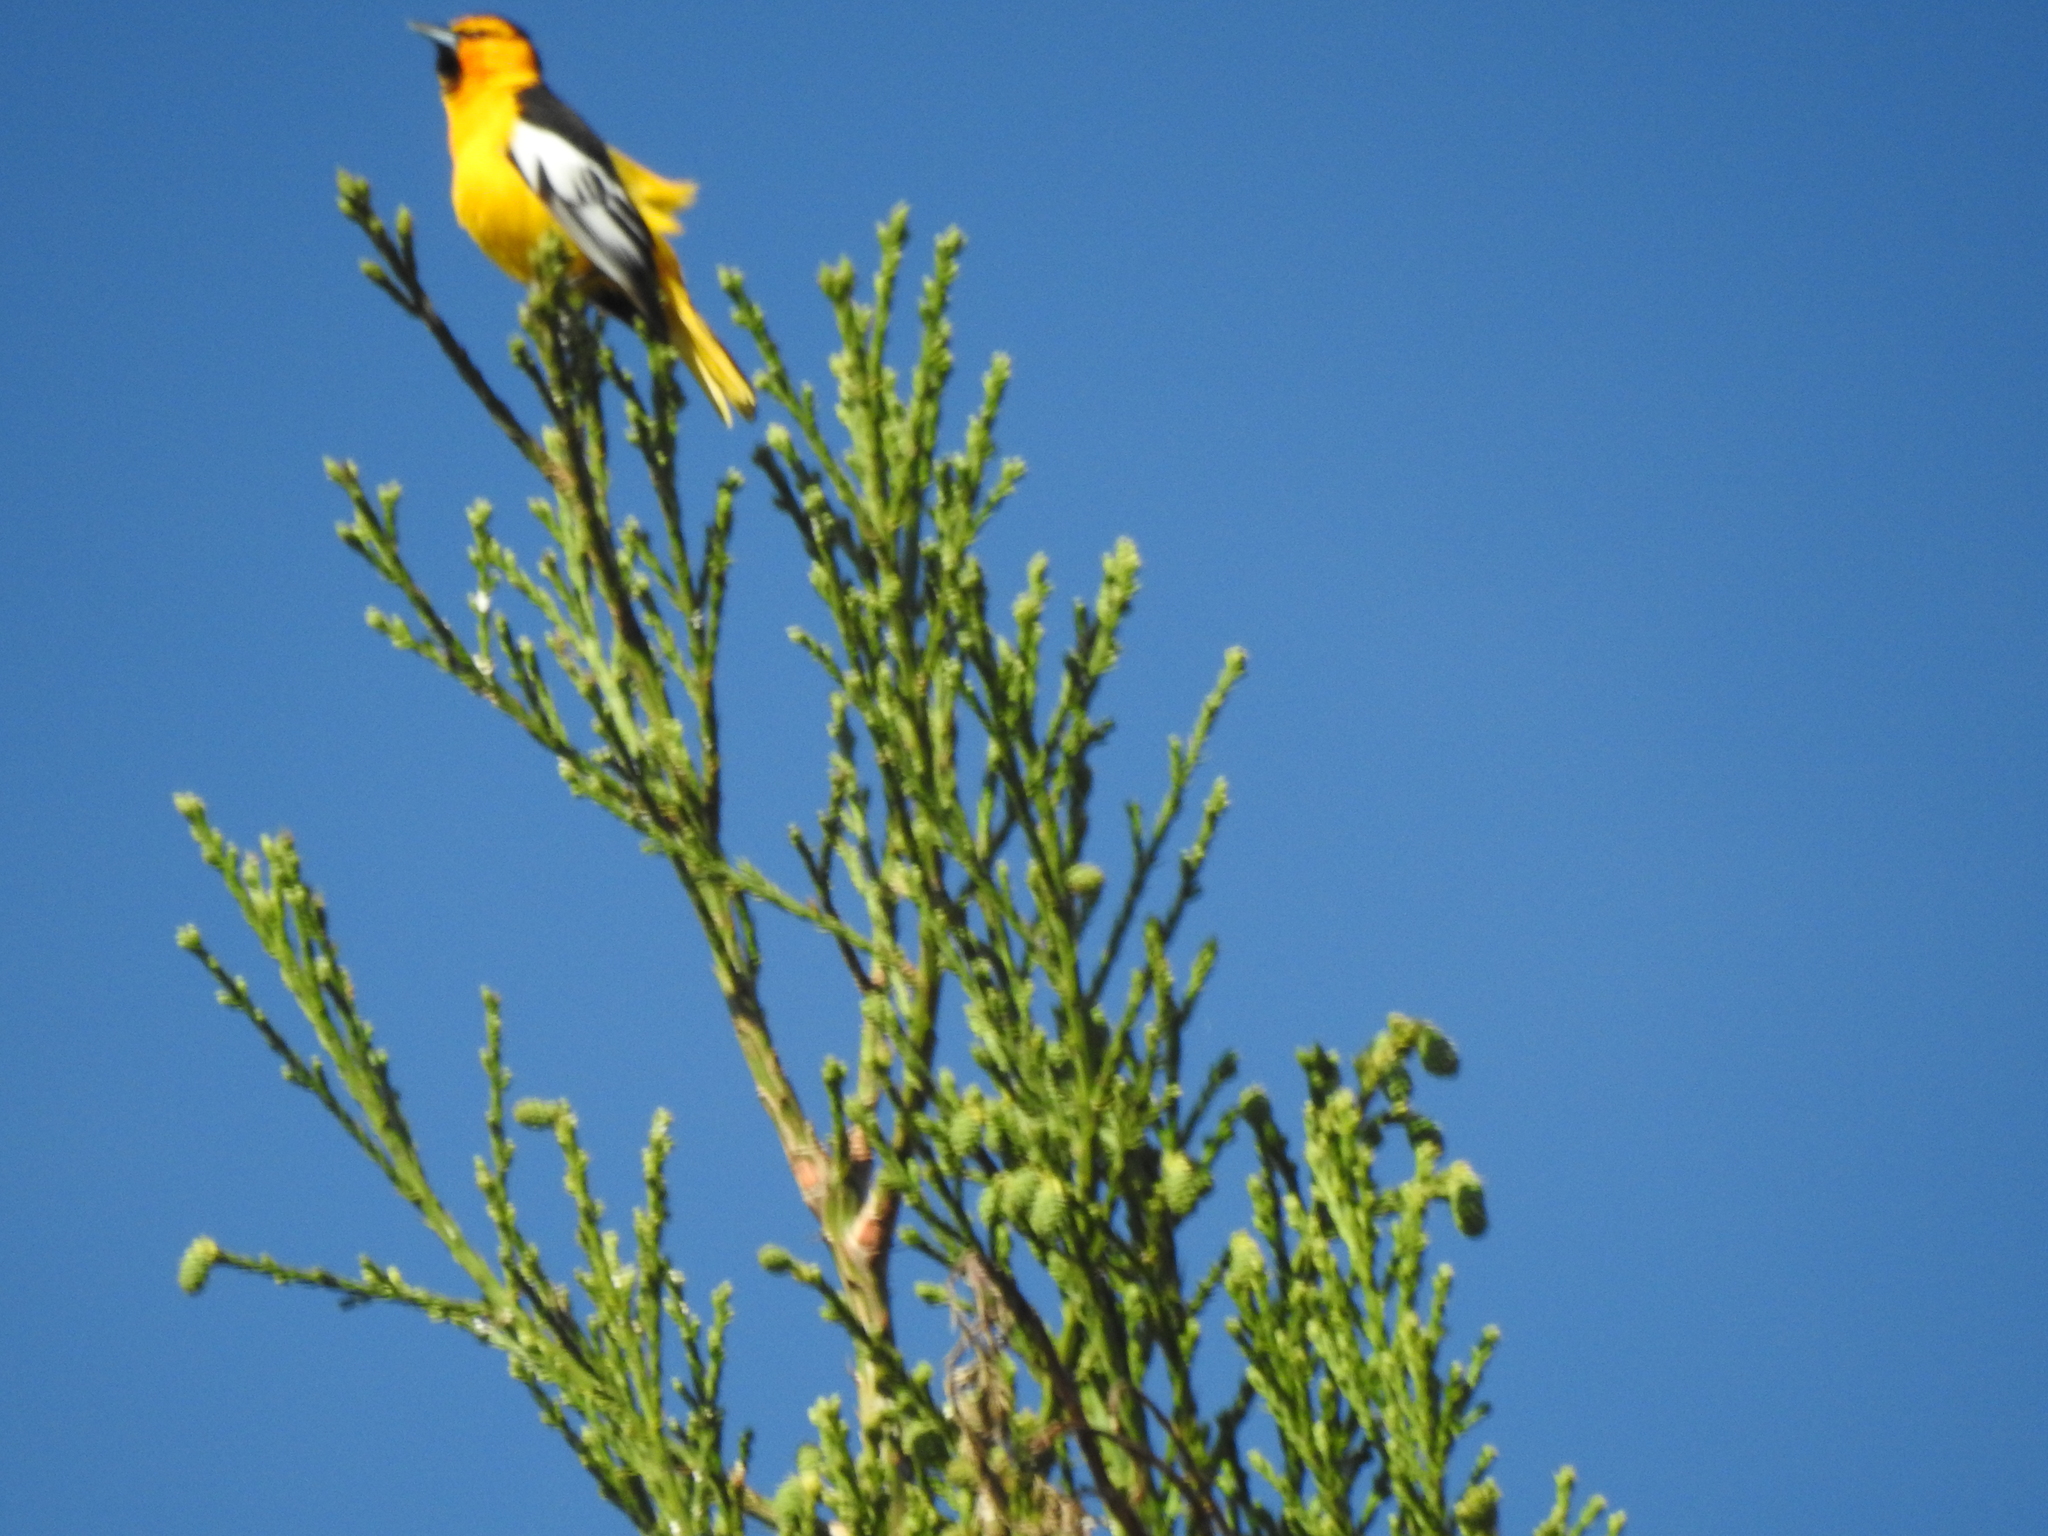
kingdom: Animalia
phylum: Chordata
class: Aves
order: Passeriformes
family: Icteridae
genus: Icterus
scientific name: Icterus bullockii
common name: Bullock's oriole
